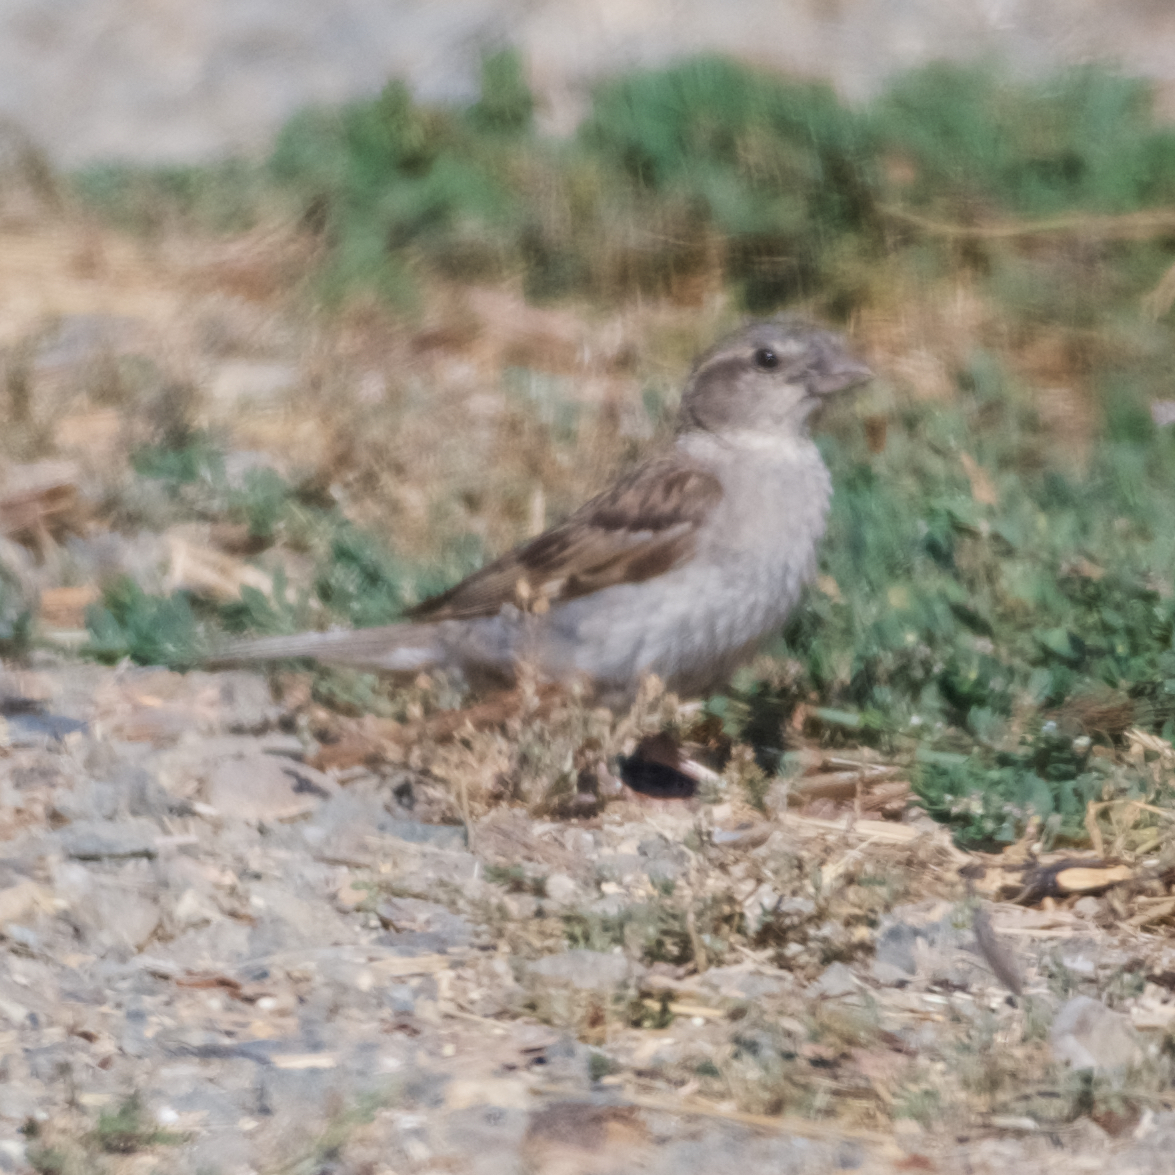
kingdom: Animalia
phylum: Chordata
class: Aves
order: Passeriformes
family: Passeridae
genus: Passer
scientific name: Passer domesticus
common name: House sparrow
